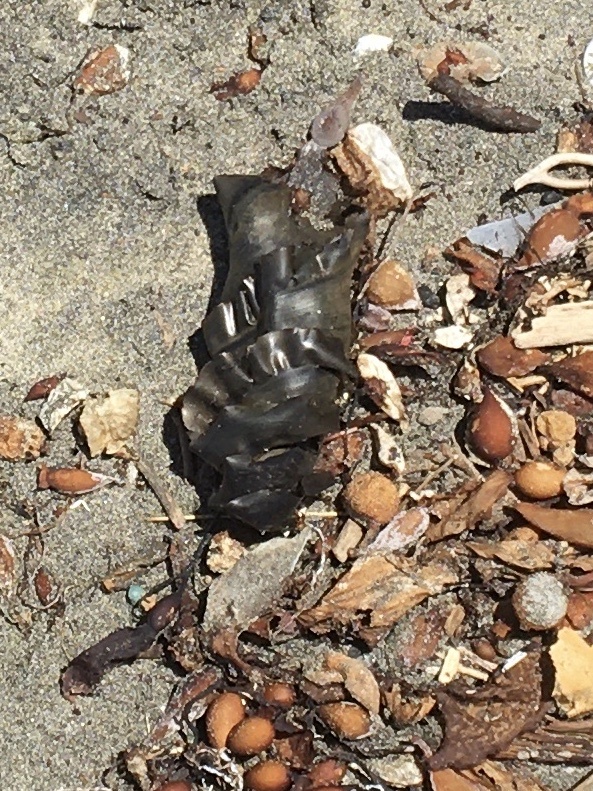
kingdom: Animalia
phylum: Chordata
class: Elasmobranchii
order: Heterodontiformes
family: Heterodontidae
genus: Heterodontus
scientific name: Heterodontus francisci
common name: Horn shark
